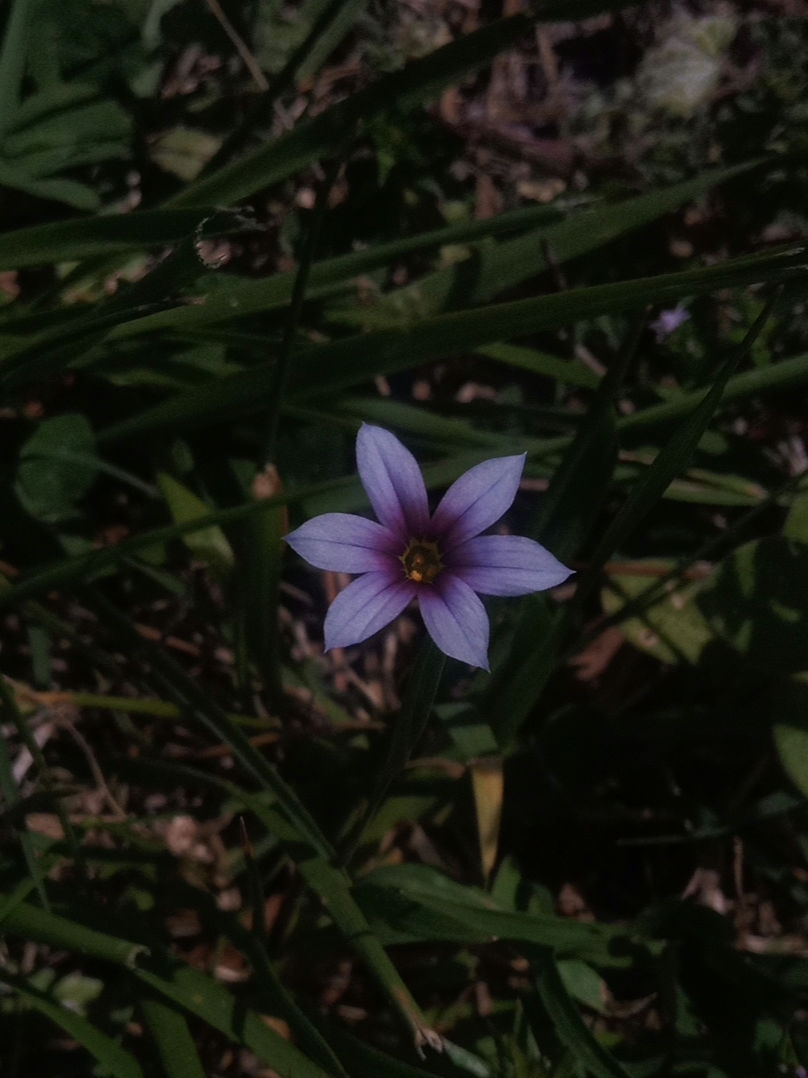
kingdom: Plantae
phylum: Tracheophyta
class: Liliopsida
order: Asparagales
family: Iridaceae
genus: Sisyrinchium
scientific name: Sisyrinchium micranthum
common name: Bermuda pigroot
